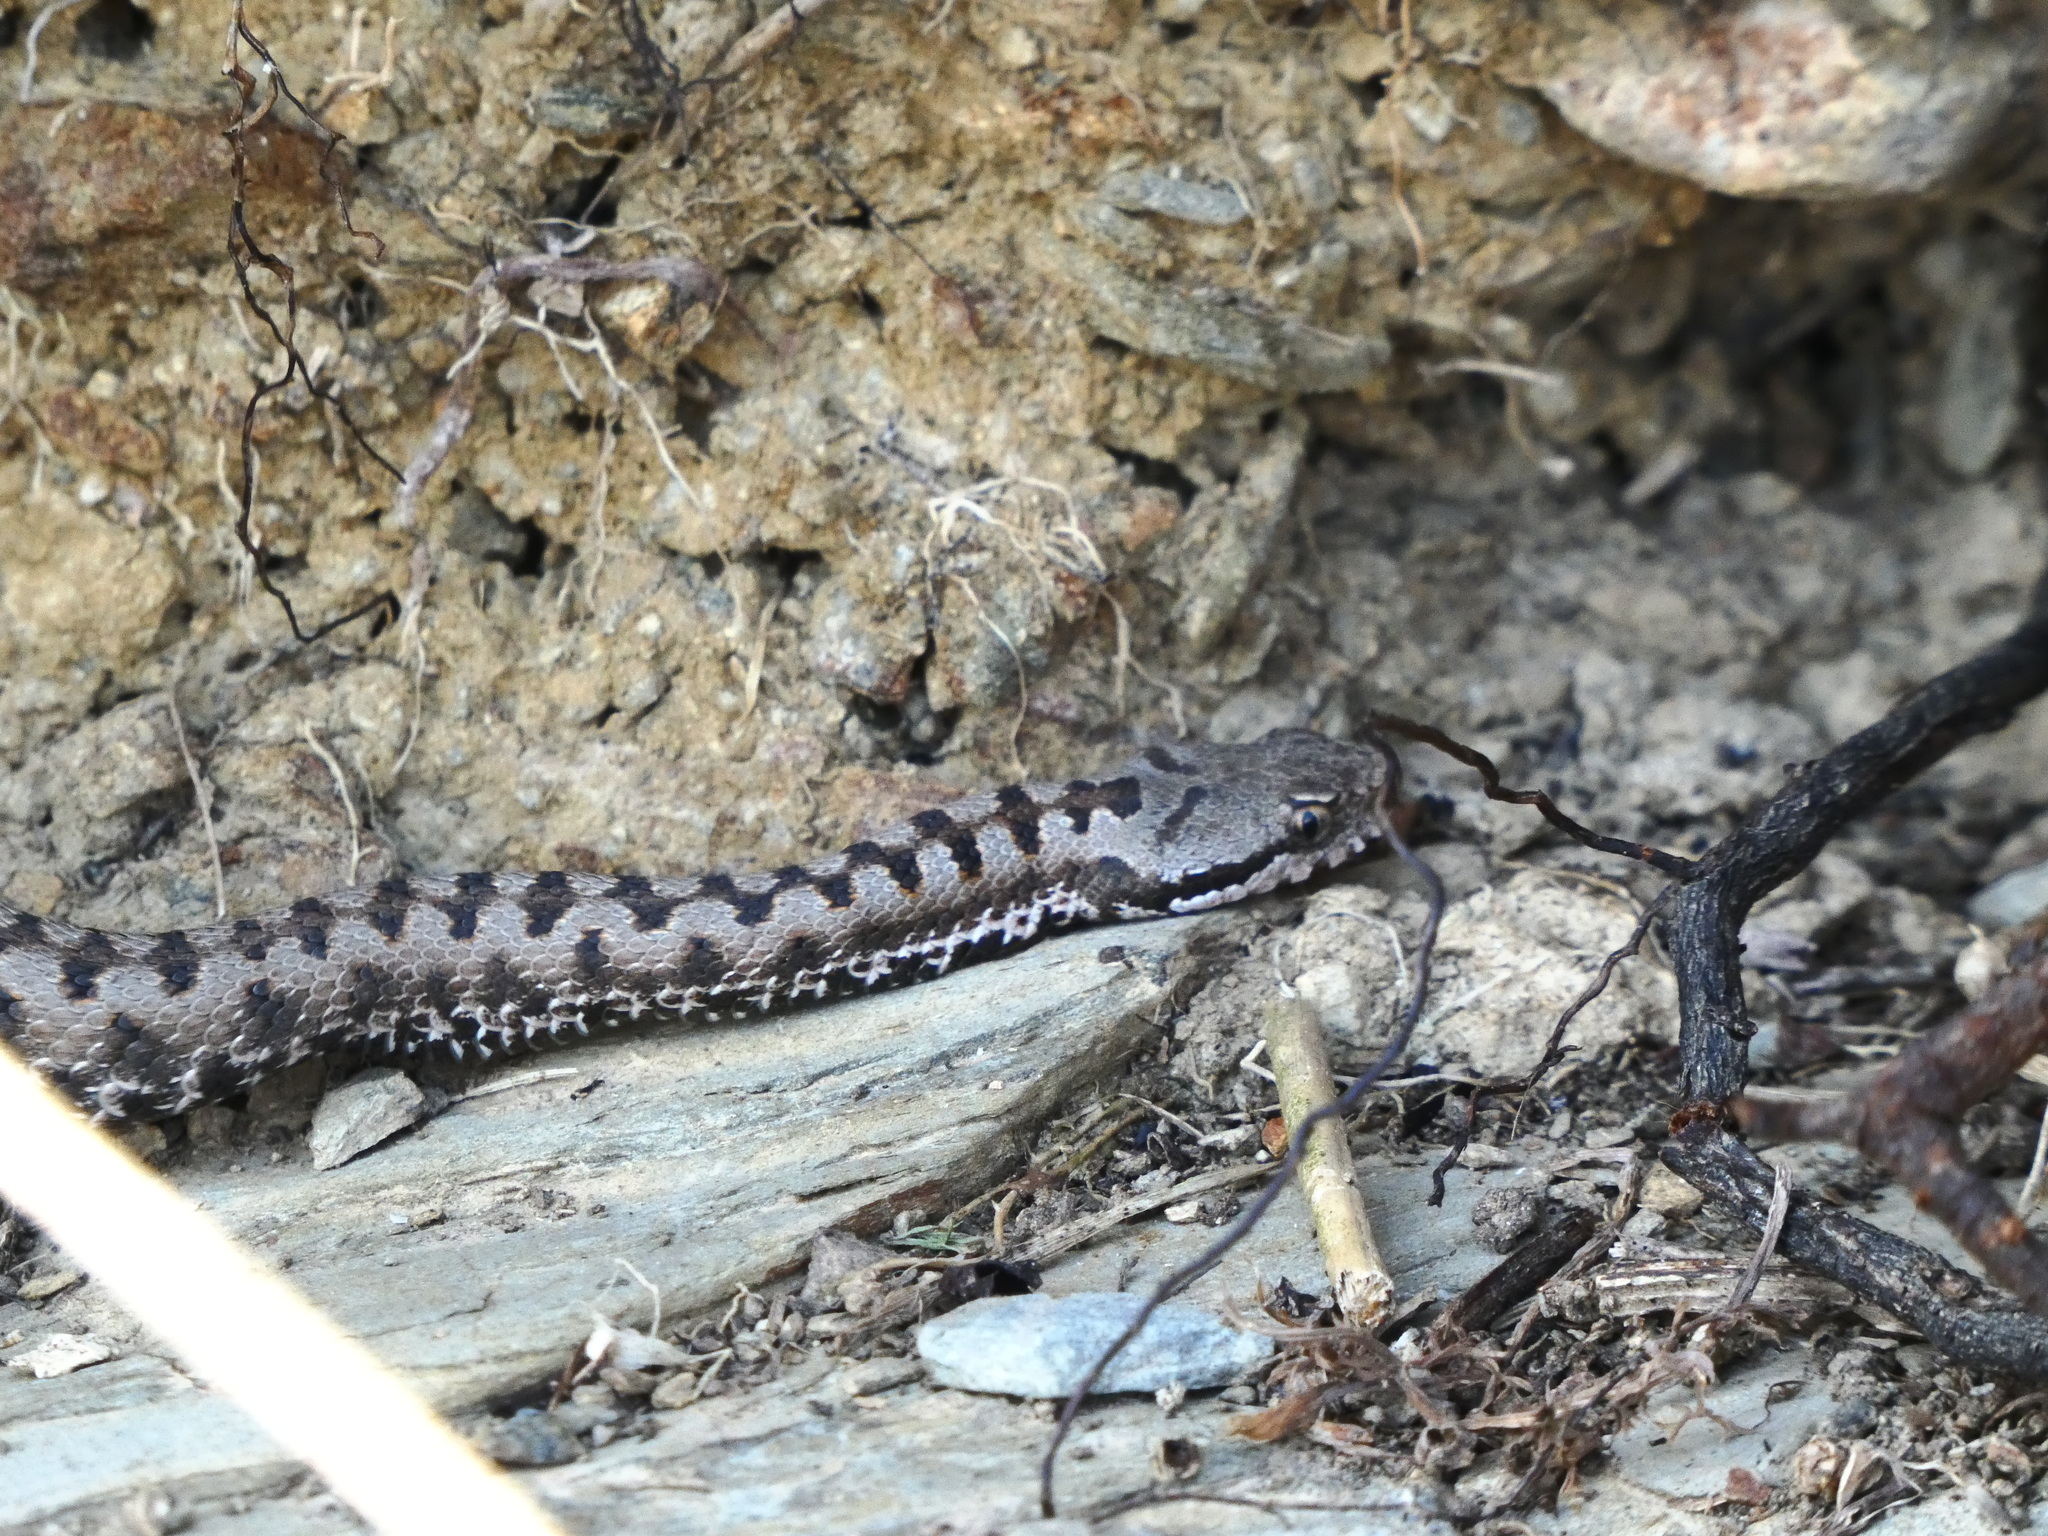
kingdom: Animalia
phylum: Chordata
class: Squamata
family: Viperidae
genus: Vipera
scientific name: Vipera aspis
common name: Asp viper
